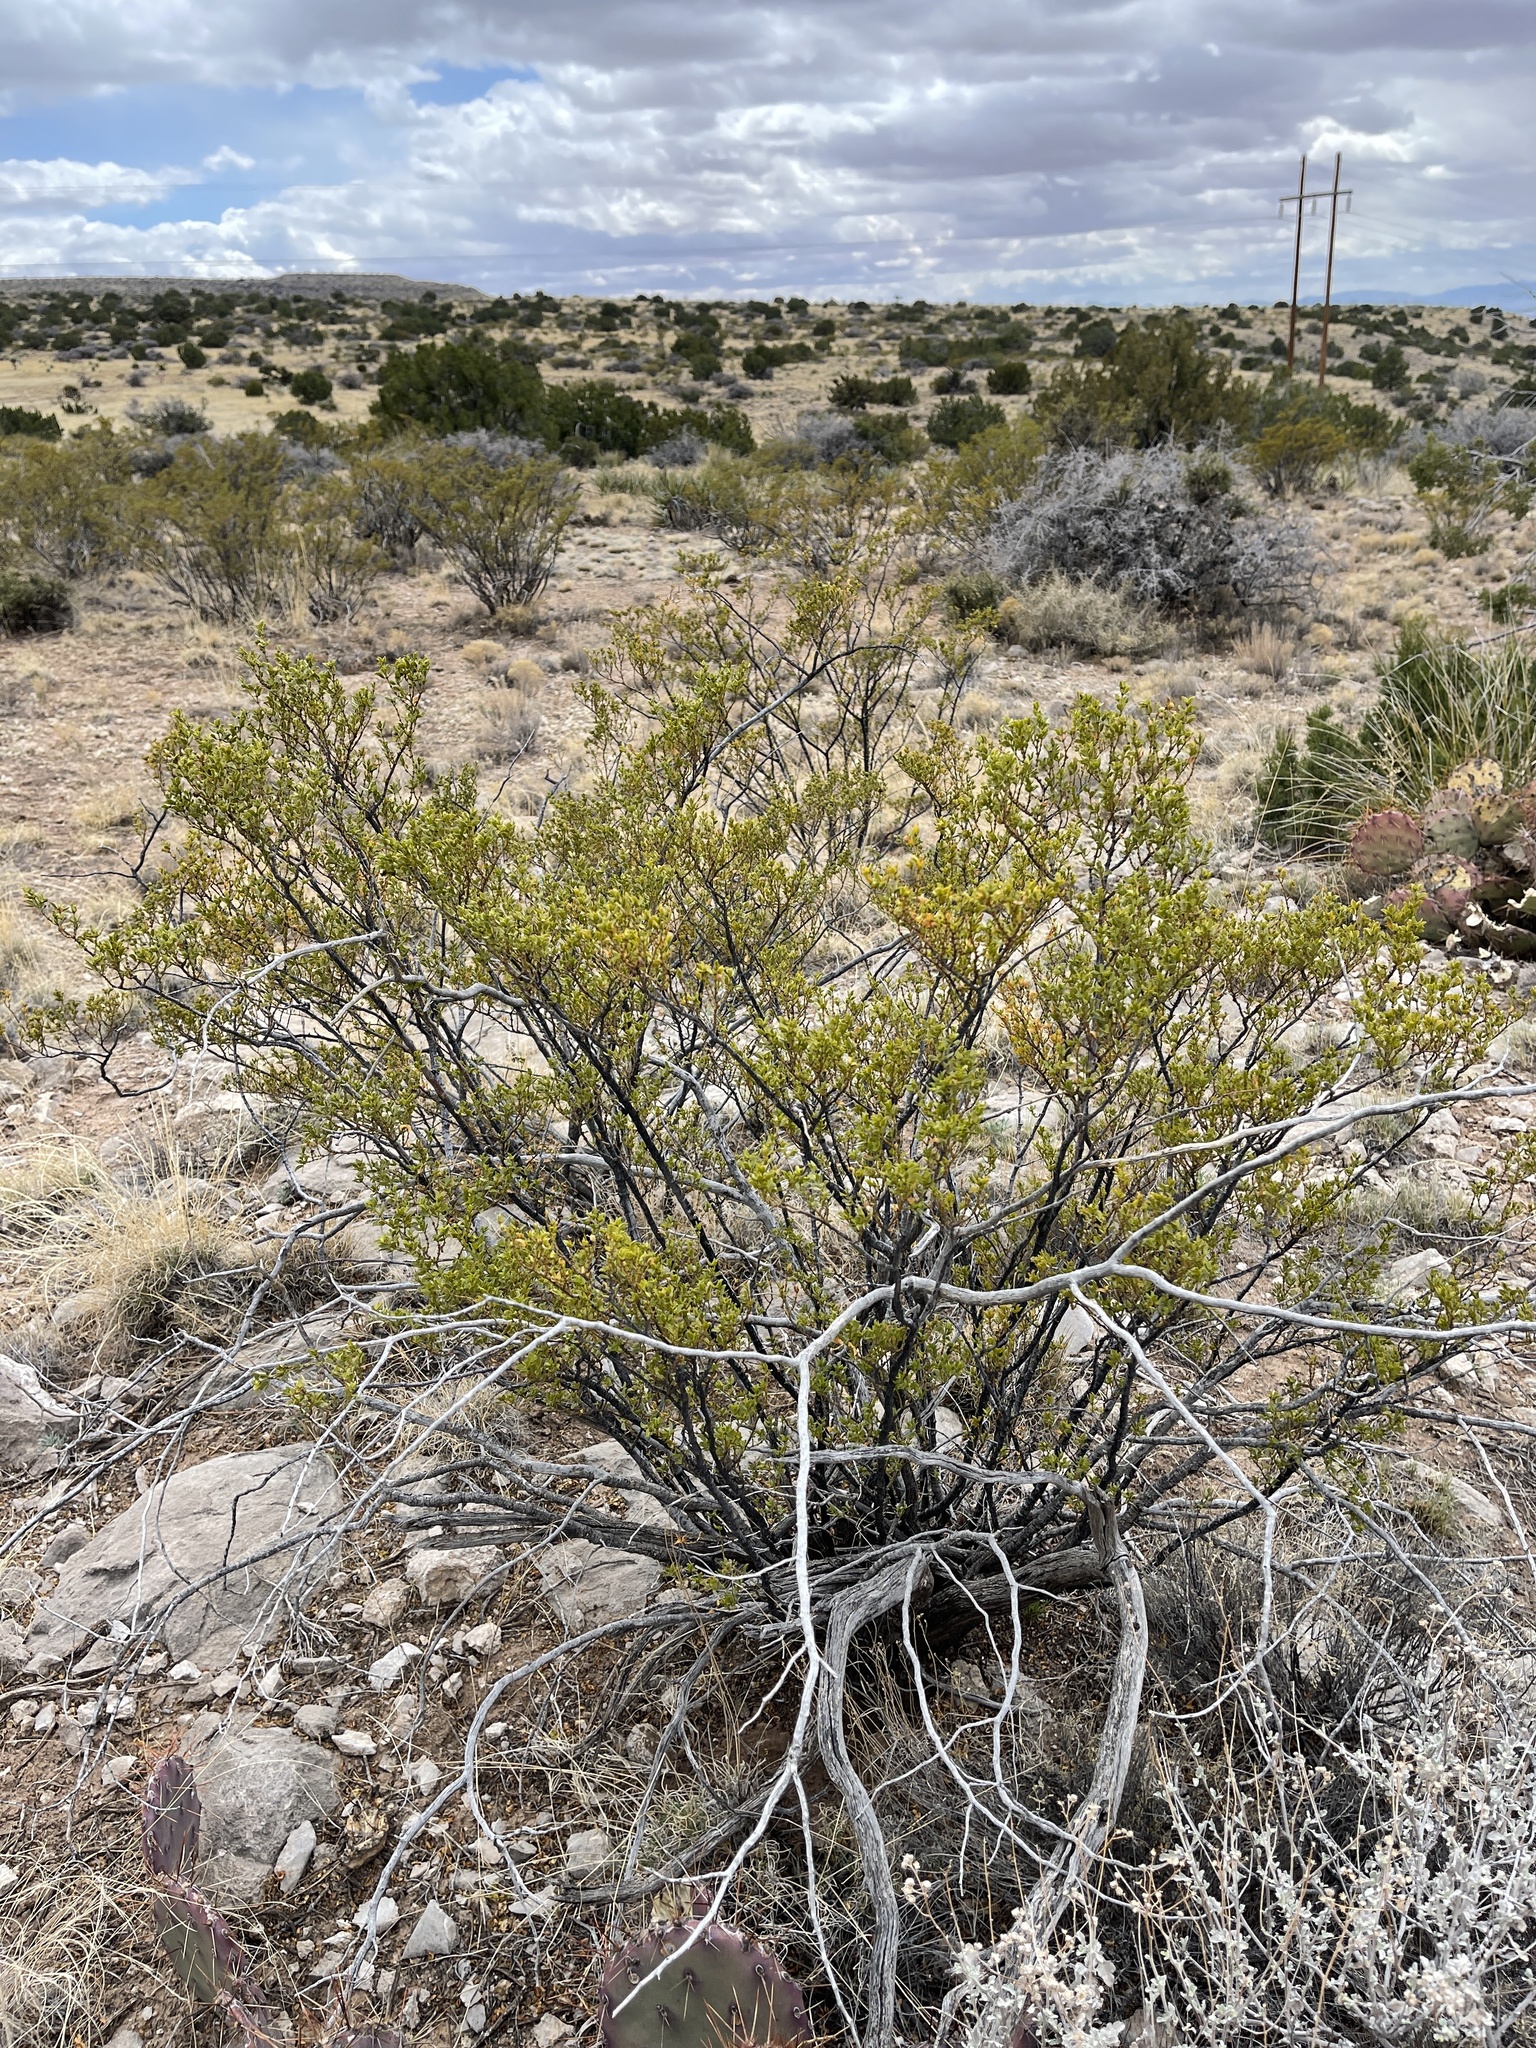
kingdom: Plantae
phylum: Tracheophyta
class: Magnoliopsida
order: Zygophyllales
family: Zygophyllaceae
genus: Larrea
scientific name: Larrea tridentata
